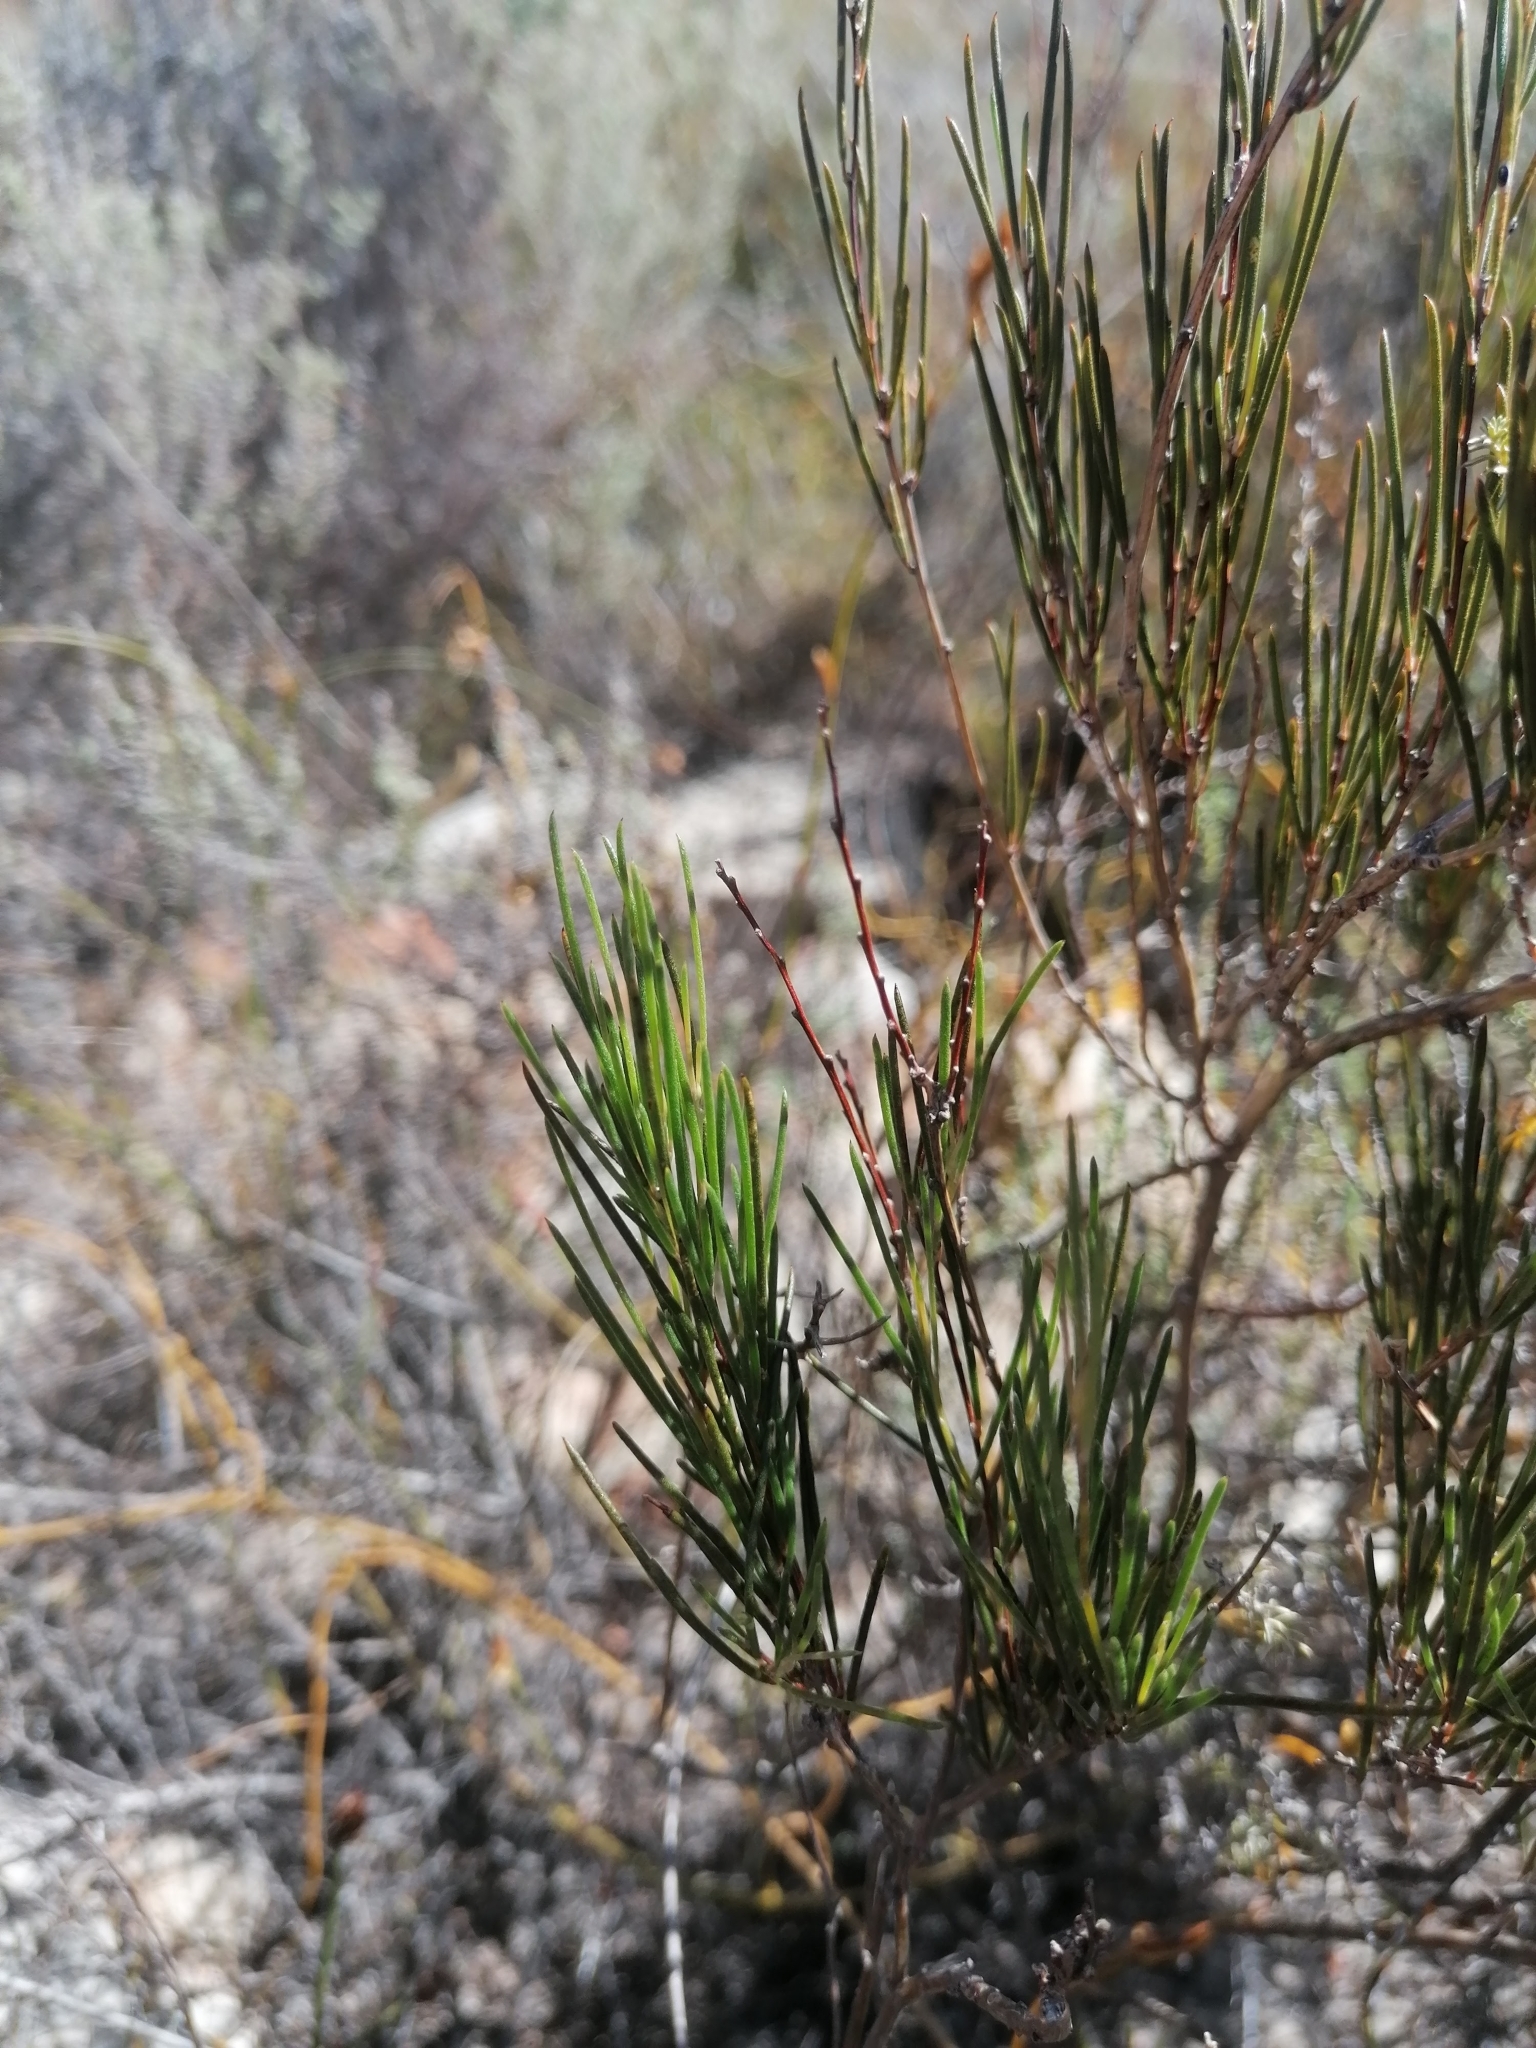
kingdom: Plantae
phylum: Tracheophyta
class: Magnoliopsida
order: Fabales
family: Fabaceae
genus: Aspalathus
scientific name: Aspalathus linearis
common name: Rooibos-tea
